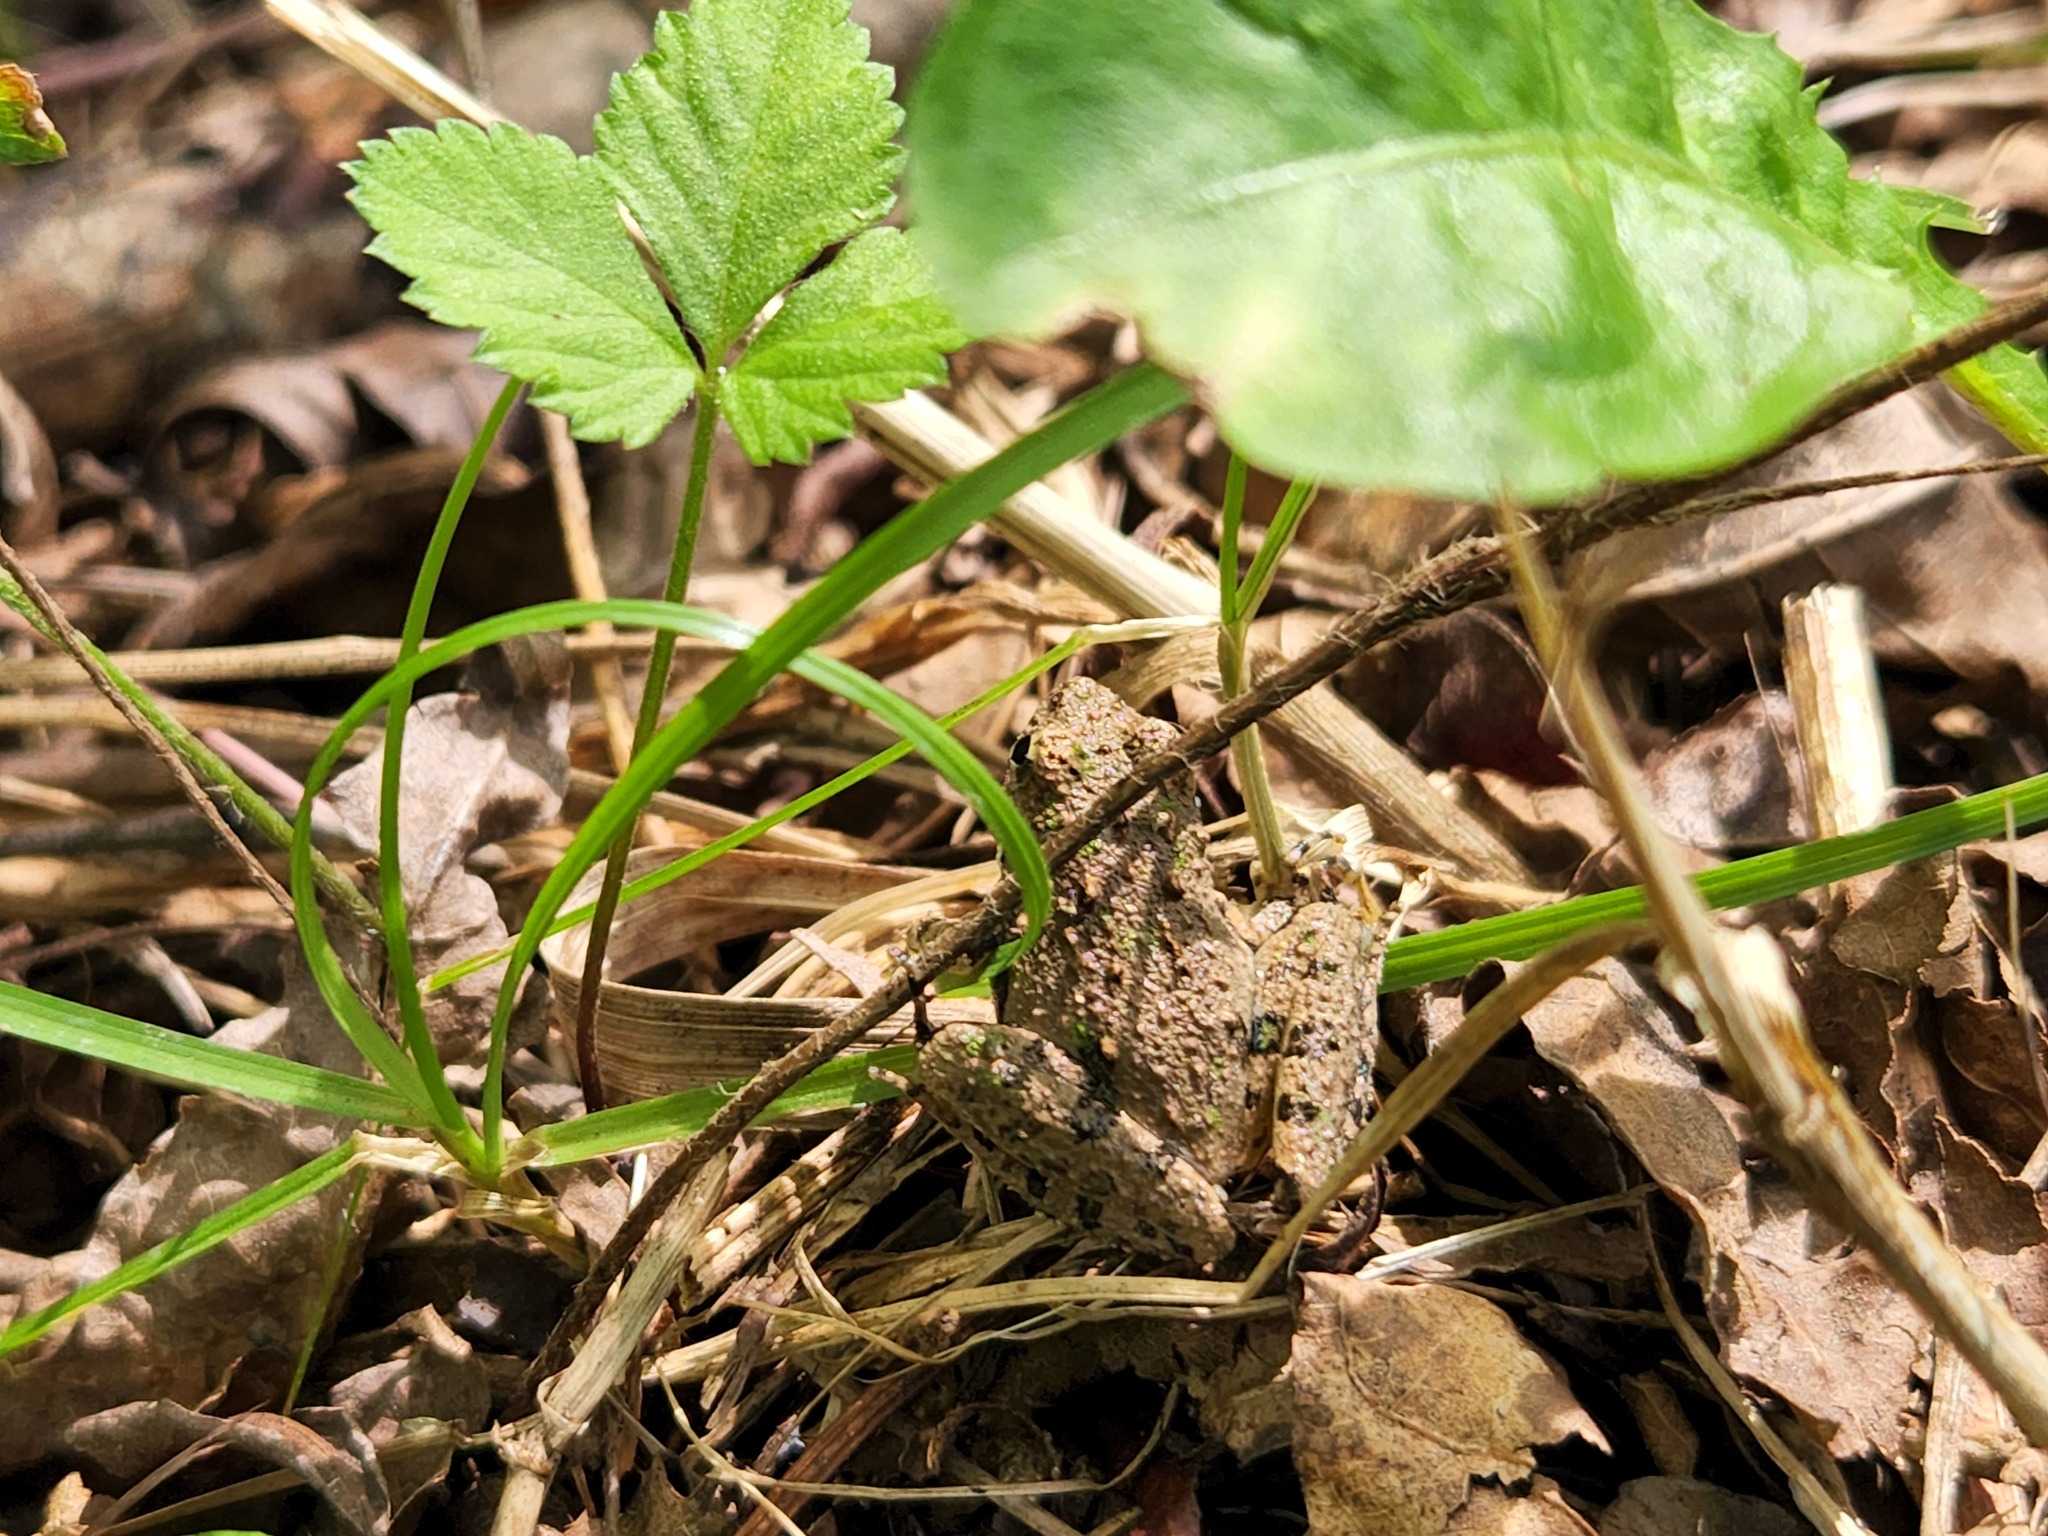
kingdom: Animalia
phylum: Chordata
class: Amphibia
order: Anura
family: Hylidae
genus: Acris
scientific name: Acris crepitans
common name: Northern cricket frog
